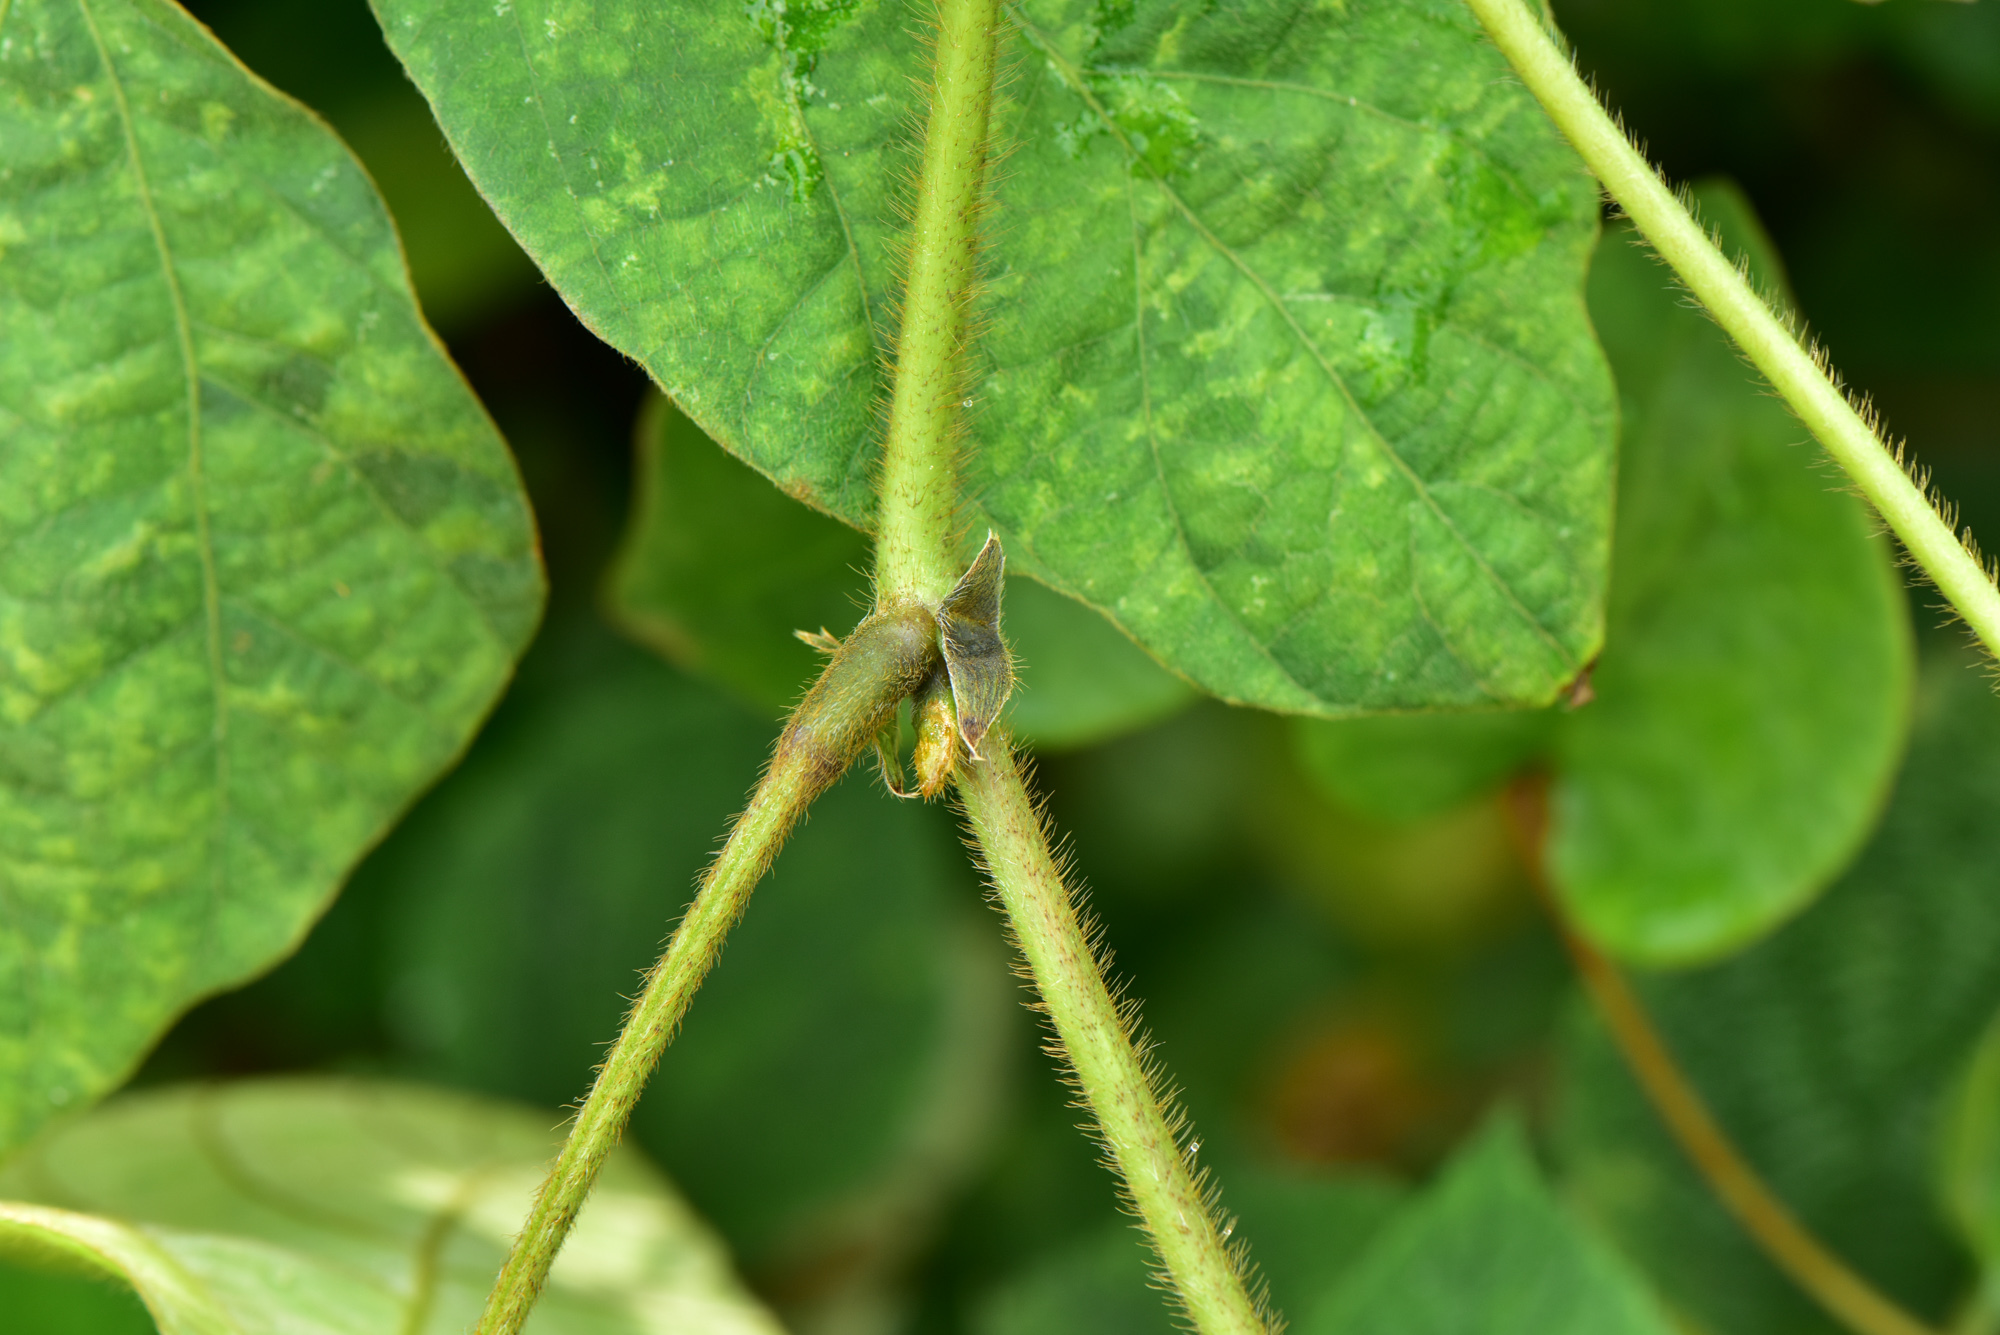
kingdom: Plantae
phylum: Tracheophyta
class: Magnoliopsida
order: Fabales
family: Fabaceae
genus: Pueraria
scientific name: Pueraria montana
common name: Kudzu
